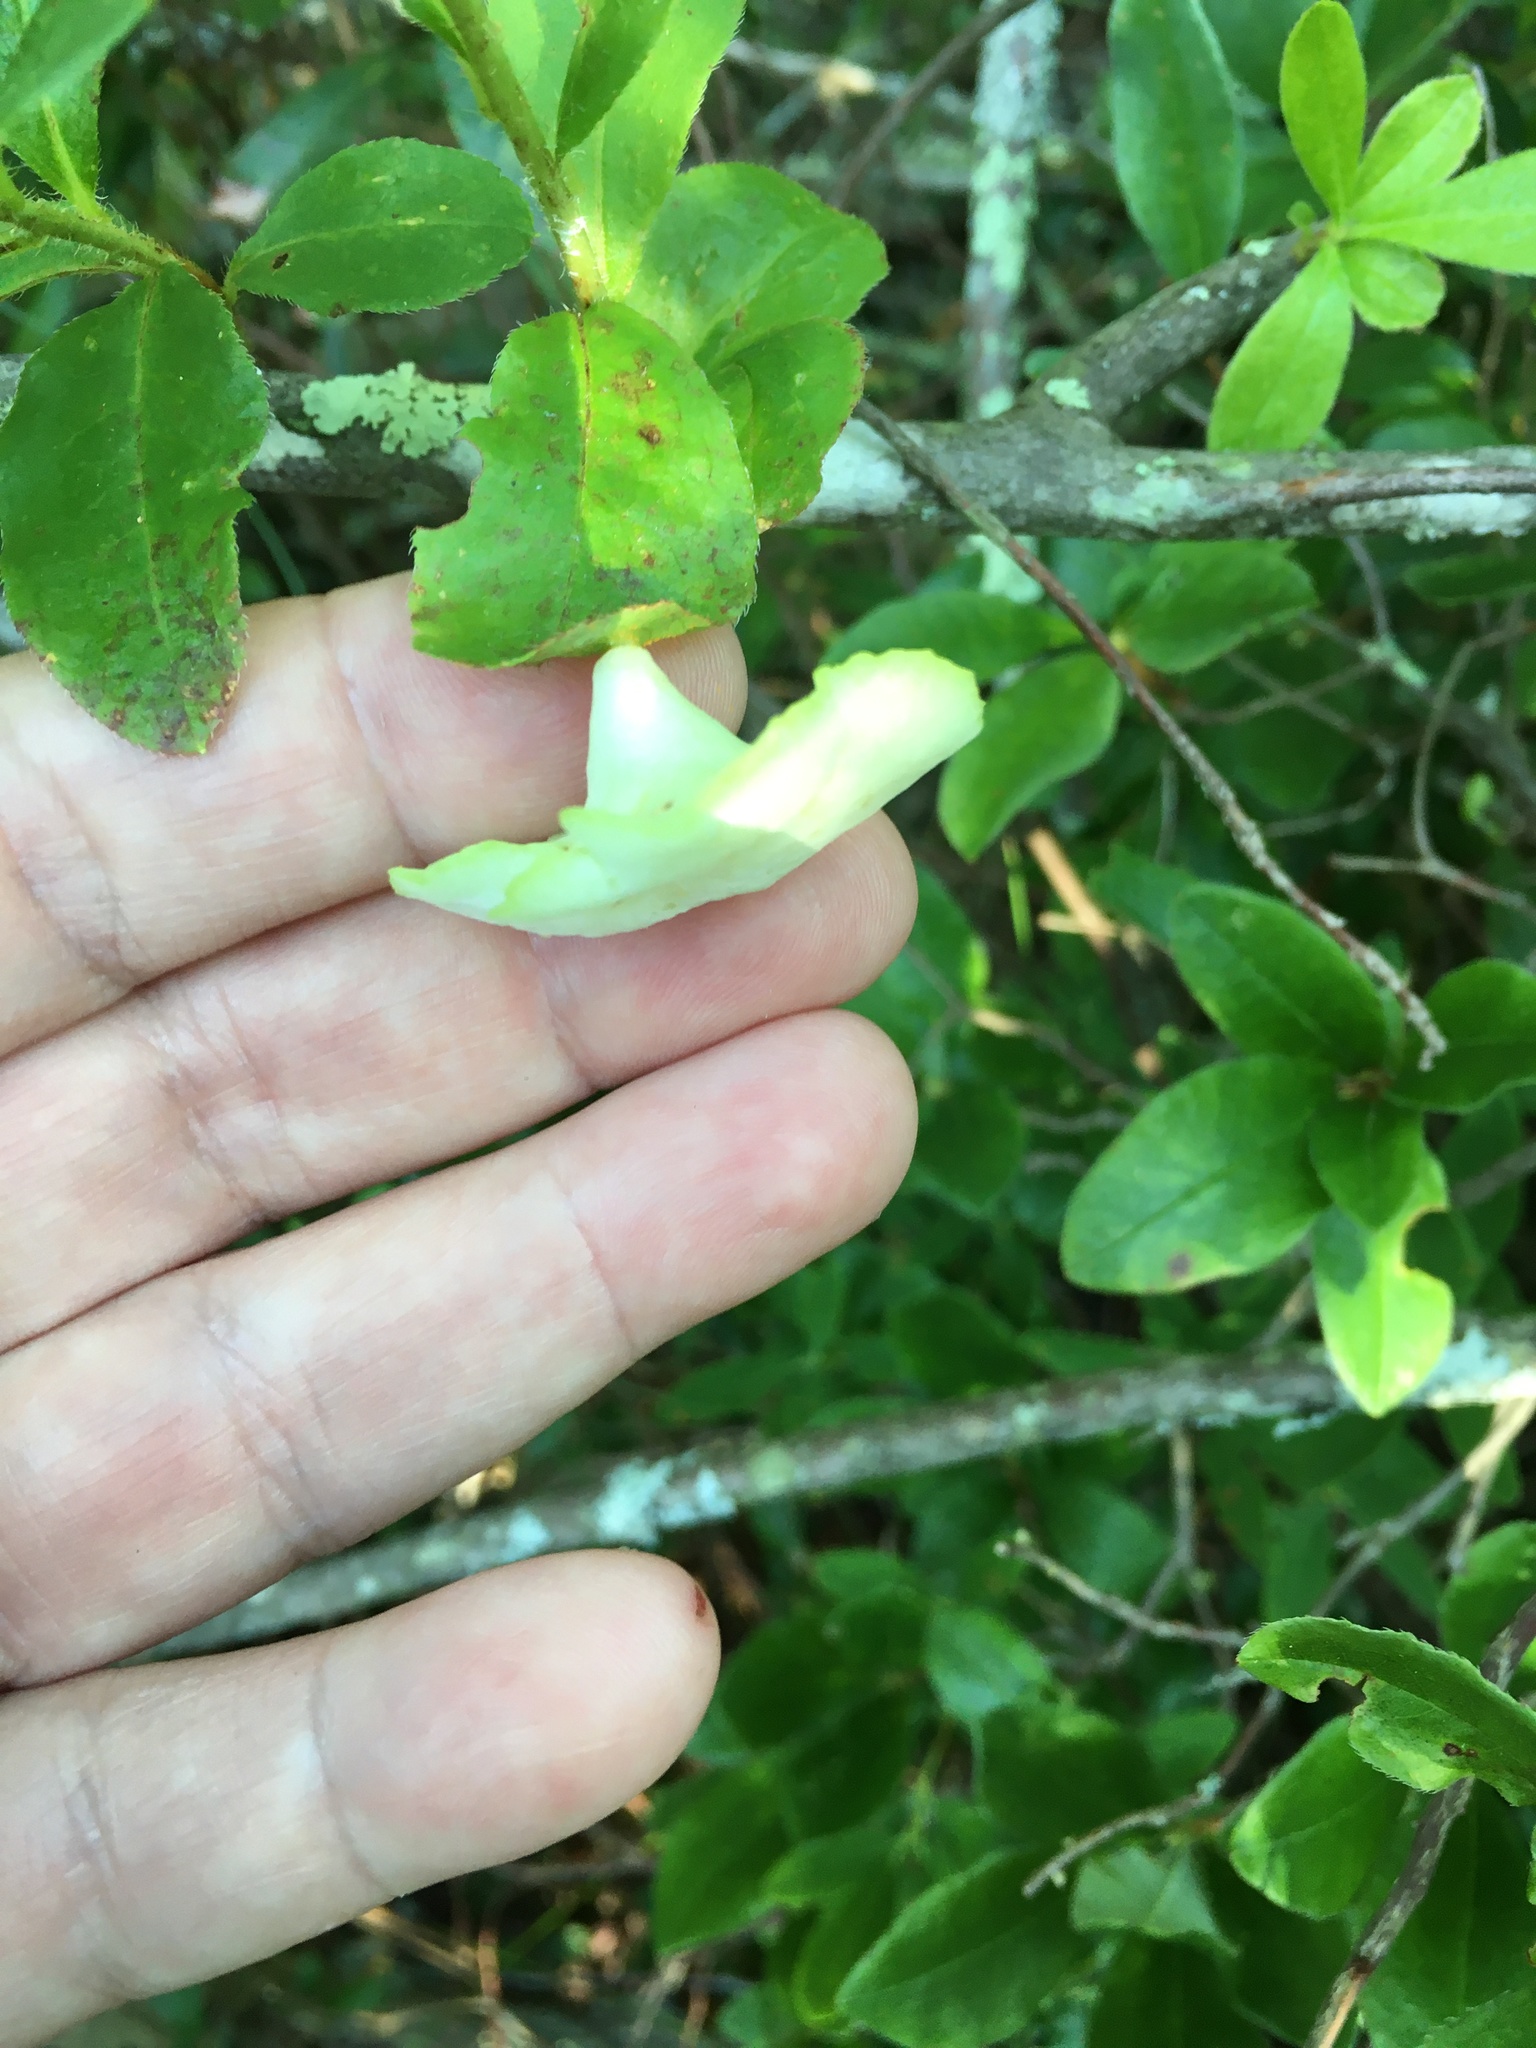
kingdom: Fungi
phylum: Basidiomycota
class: Exobasidiomycetes
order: Exobasidiales
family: Exobasidiaceae
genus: Exobasidium
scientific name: Exobasidium vaccinii
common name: Cowberry redleaf
